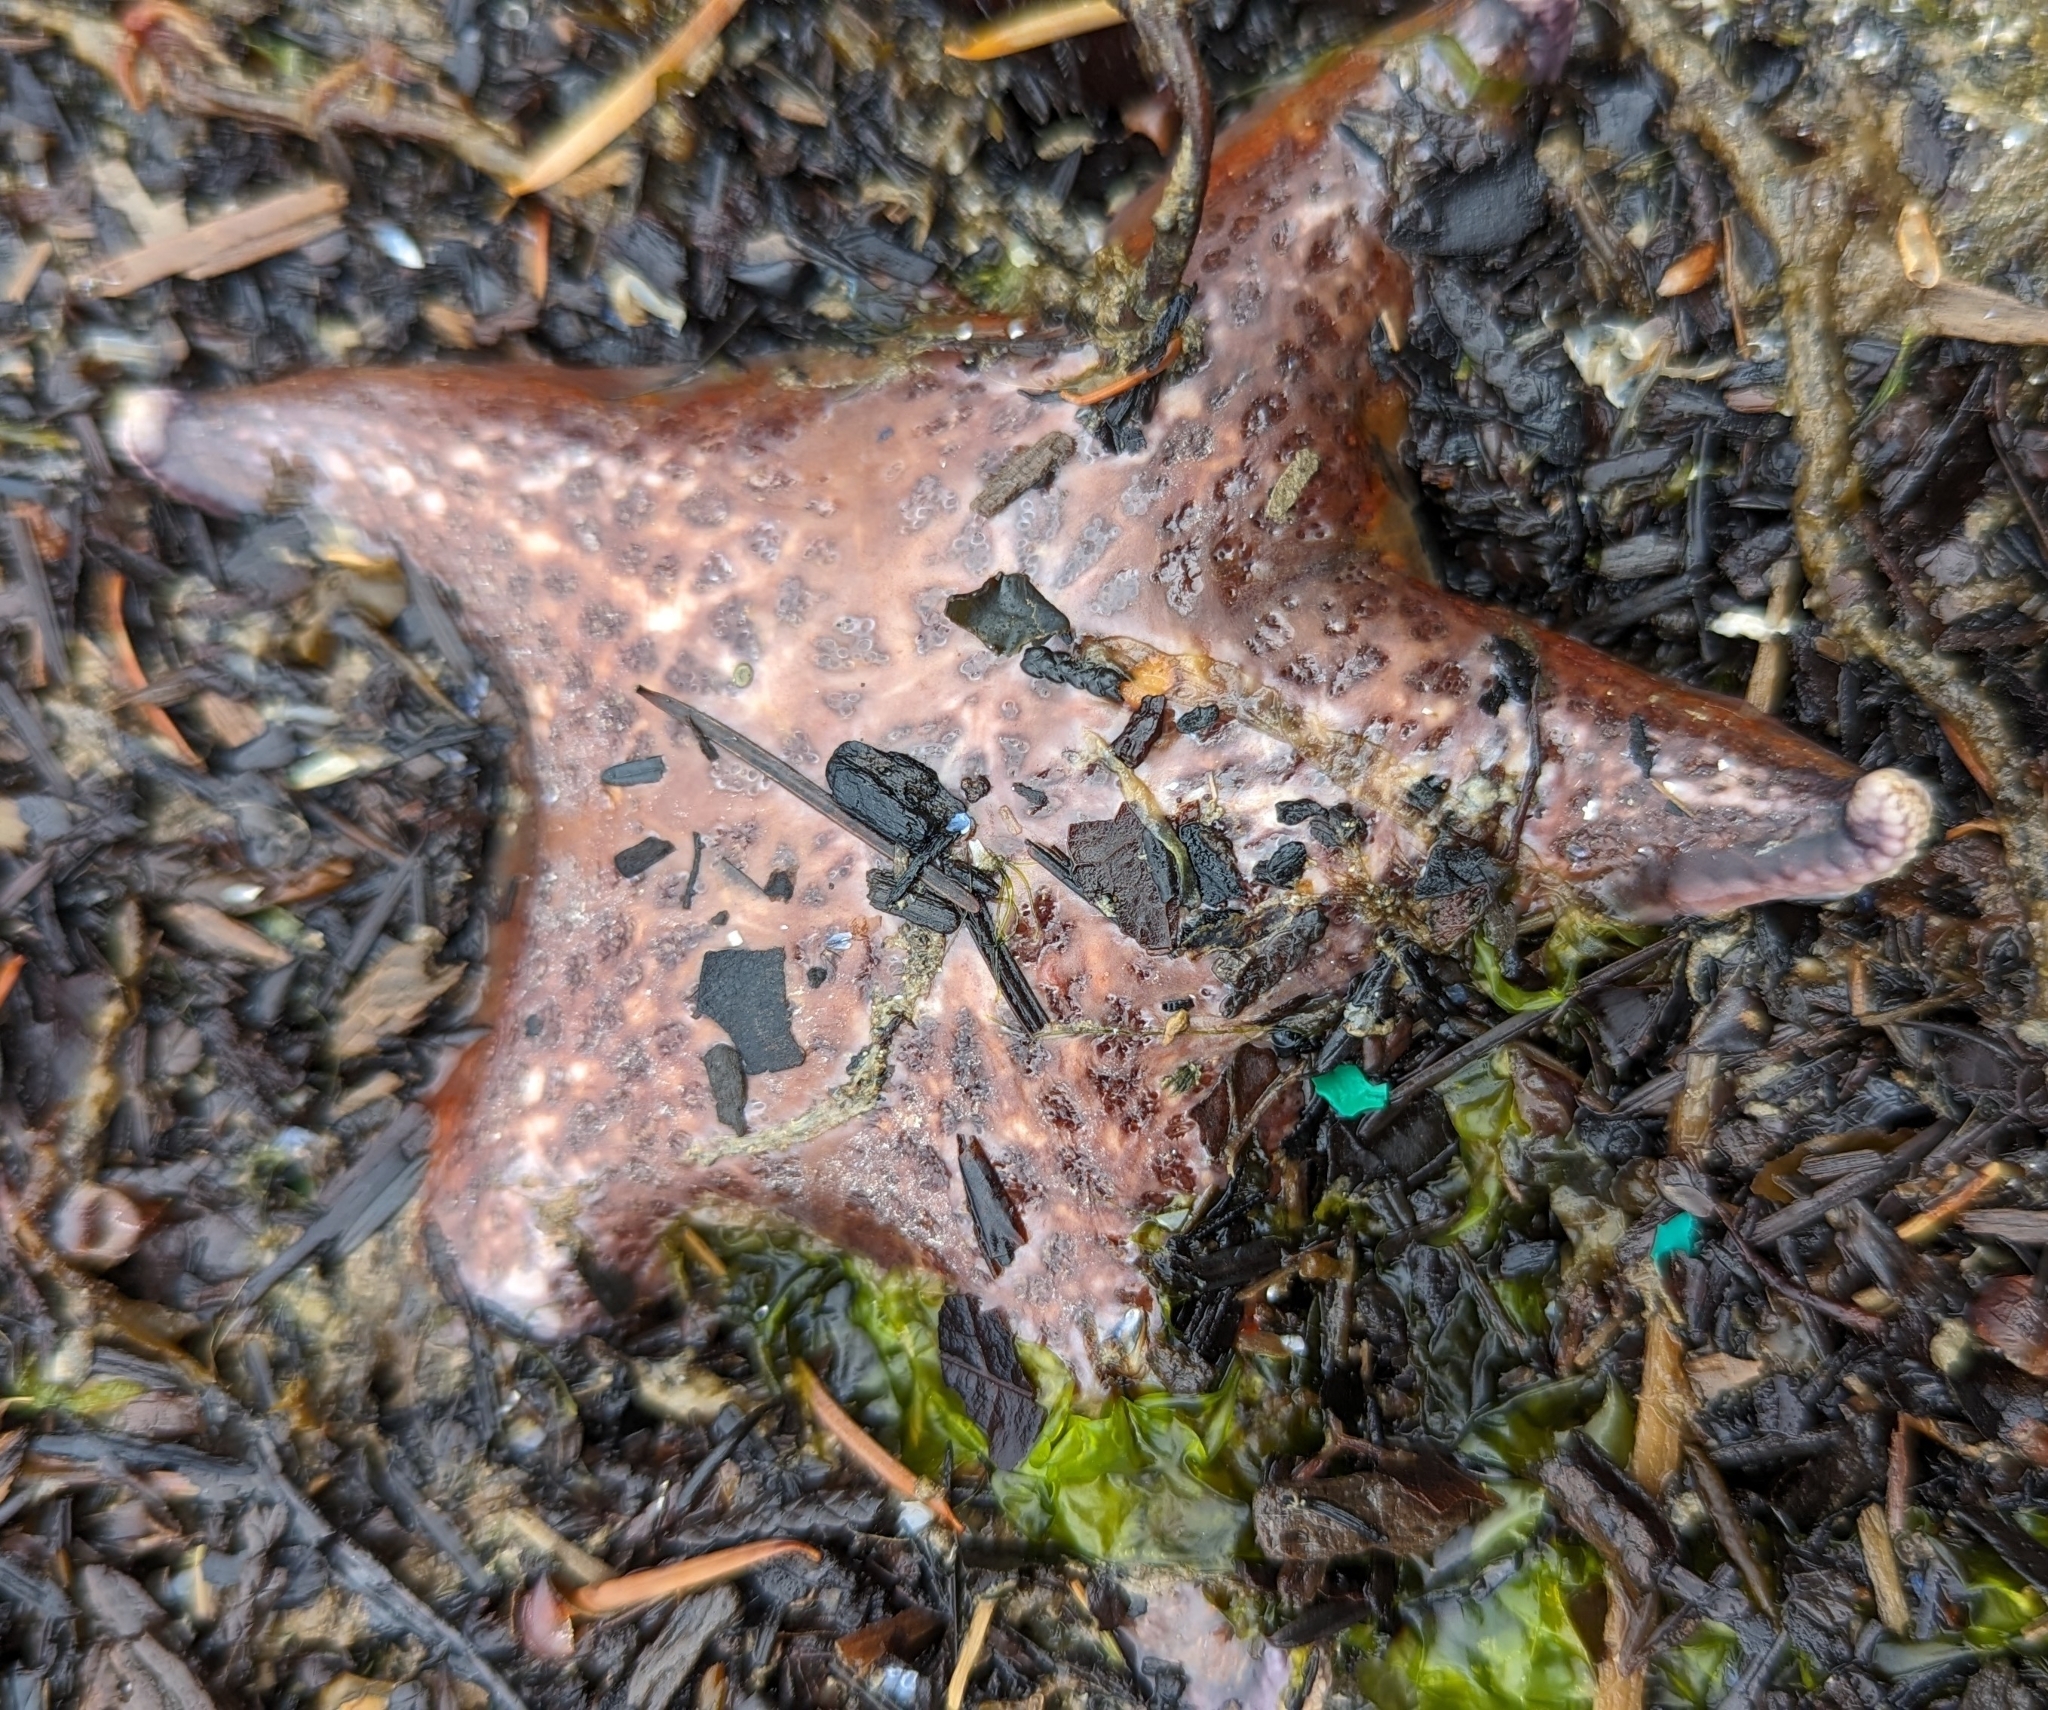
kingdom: Animalia
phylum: Echinodermata
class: Asteroidea
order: Valvatida
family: Asteropseidae
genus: Dermasterias
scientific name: Dermasterias imbricata
